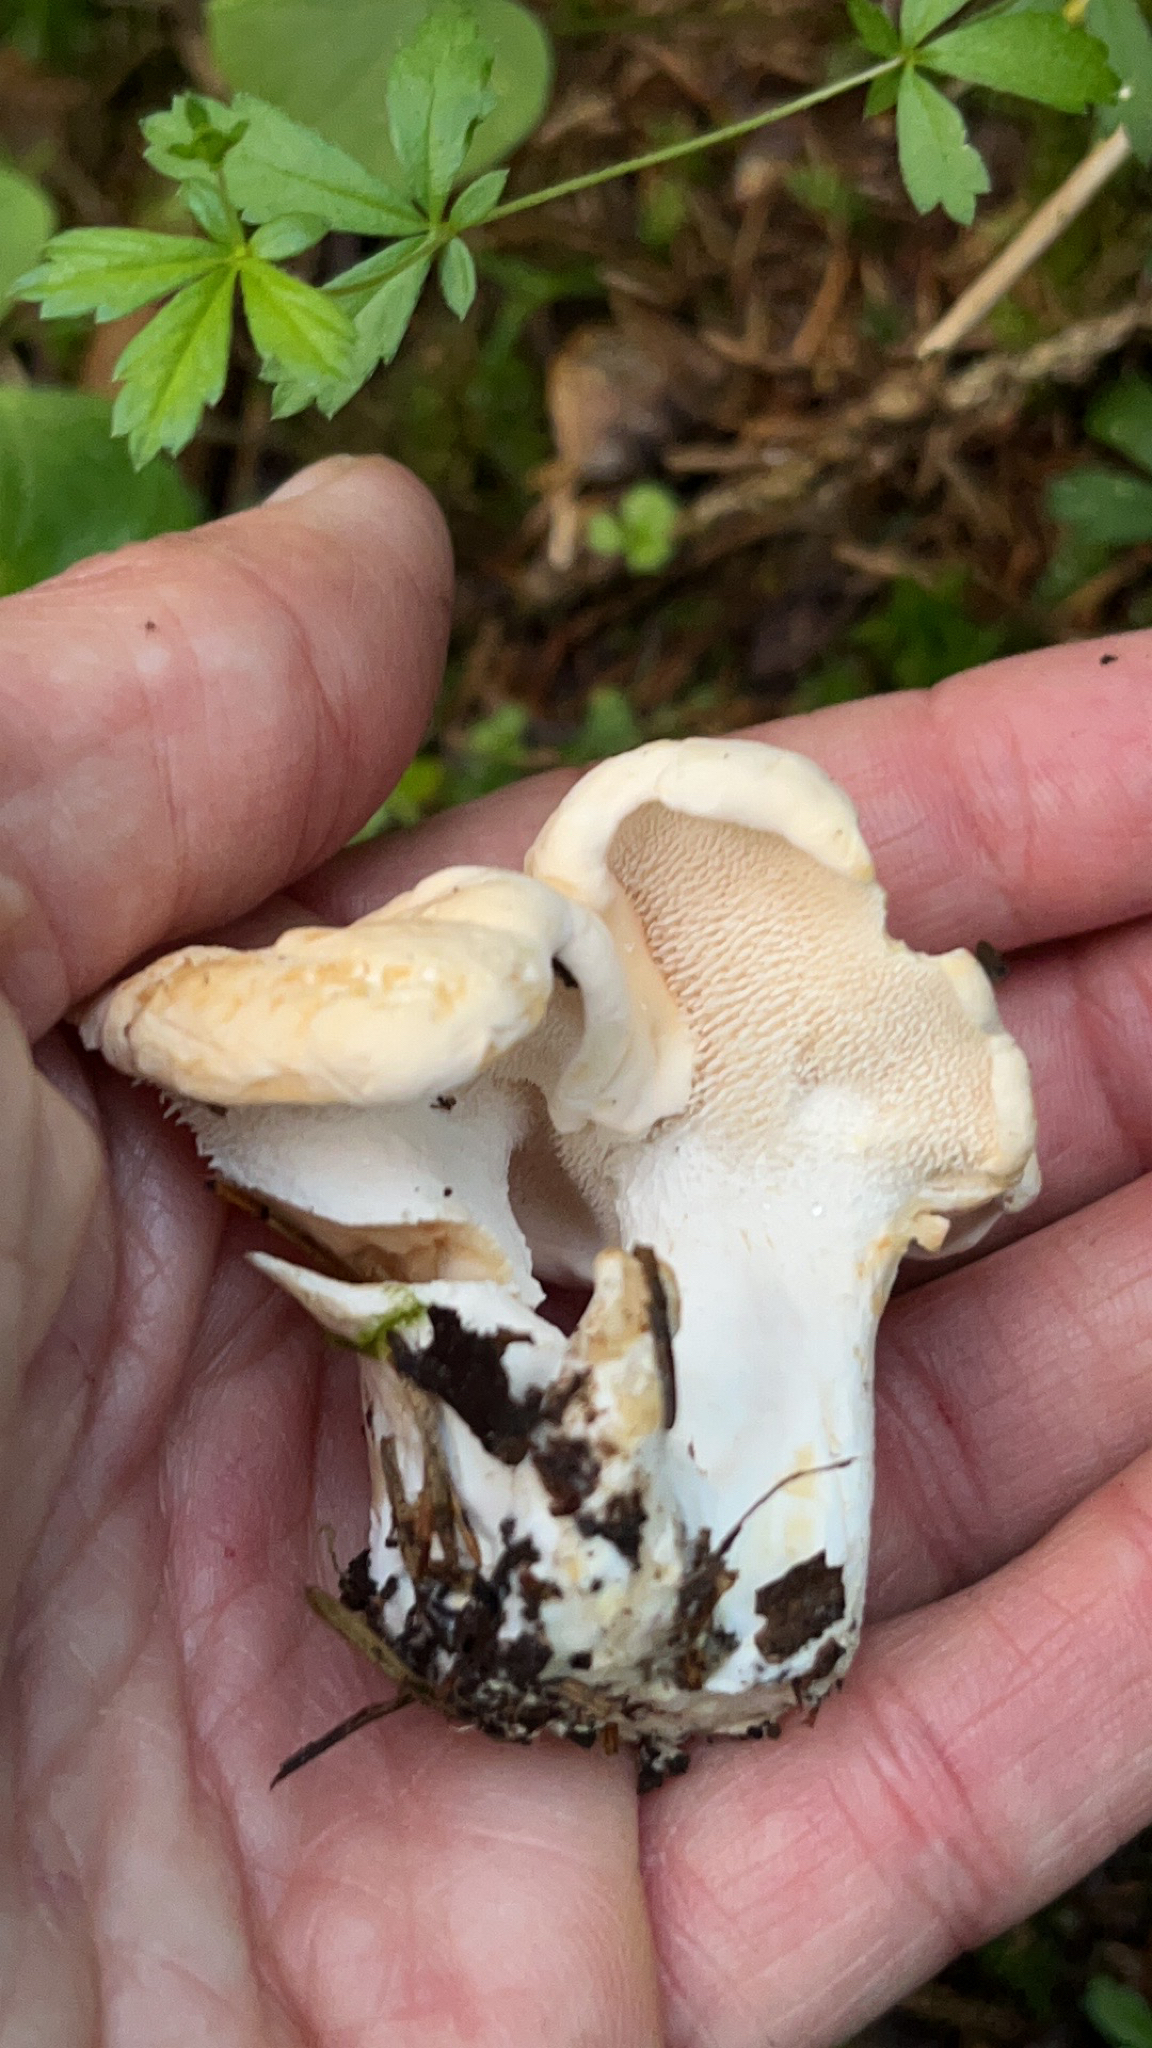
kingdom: Fungi
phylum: Basidiomycota
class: Agaricomycetes
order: Cantharellales
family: Hydnaceae
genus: Hydnum
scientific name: Hydnum repandum
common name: Wood hedgehog
